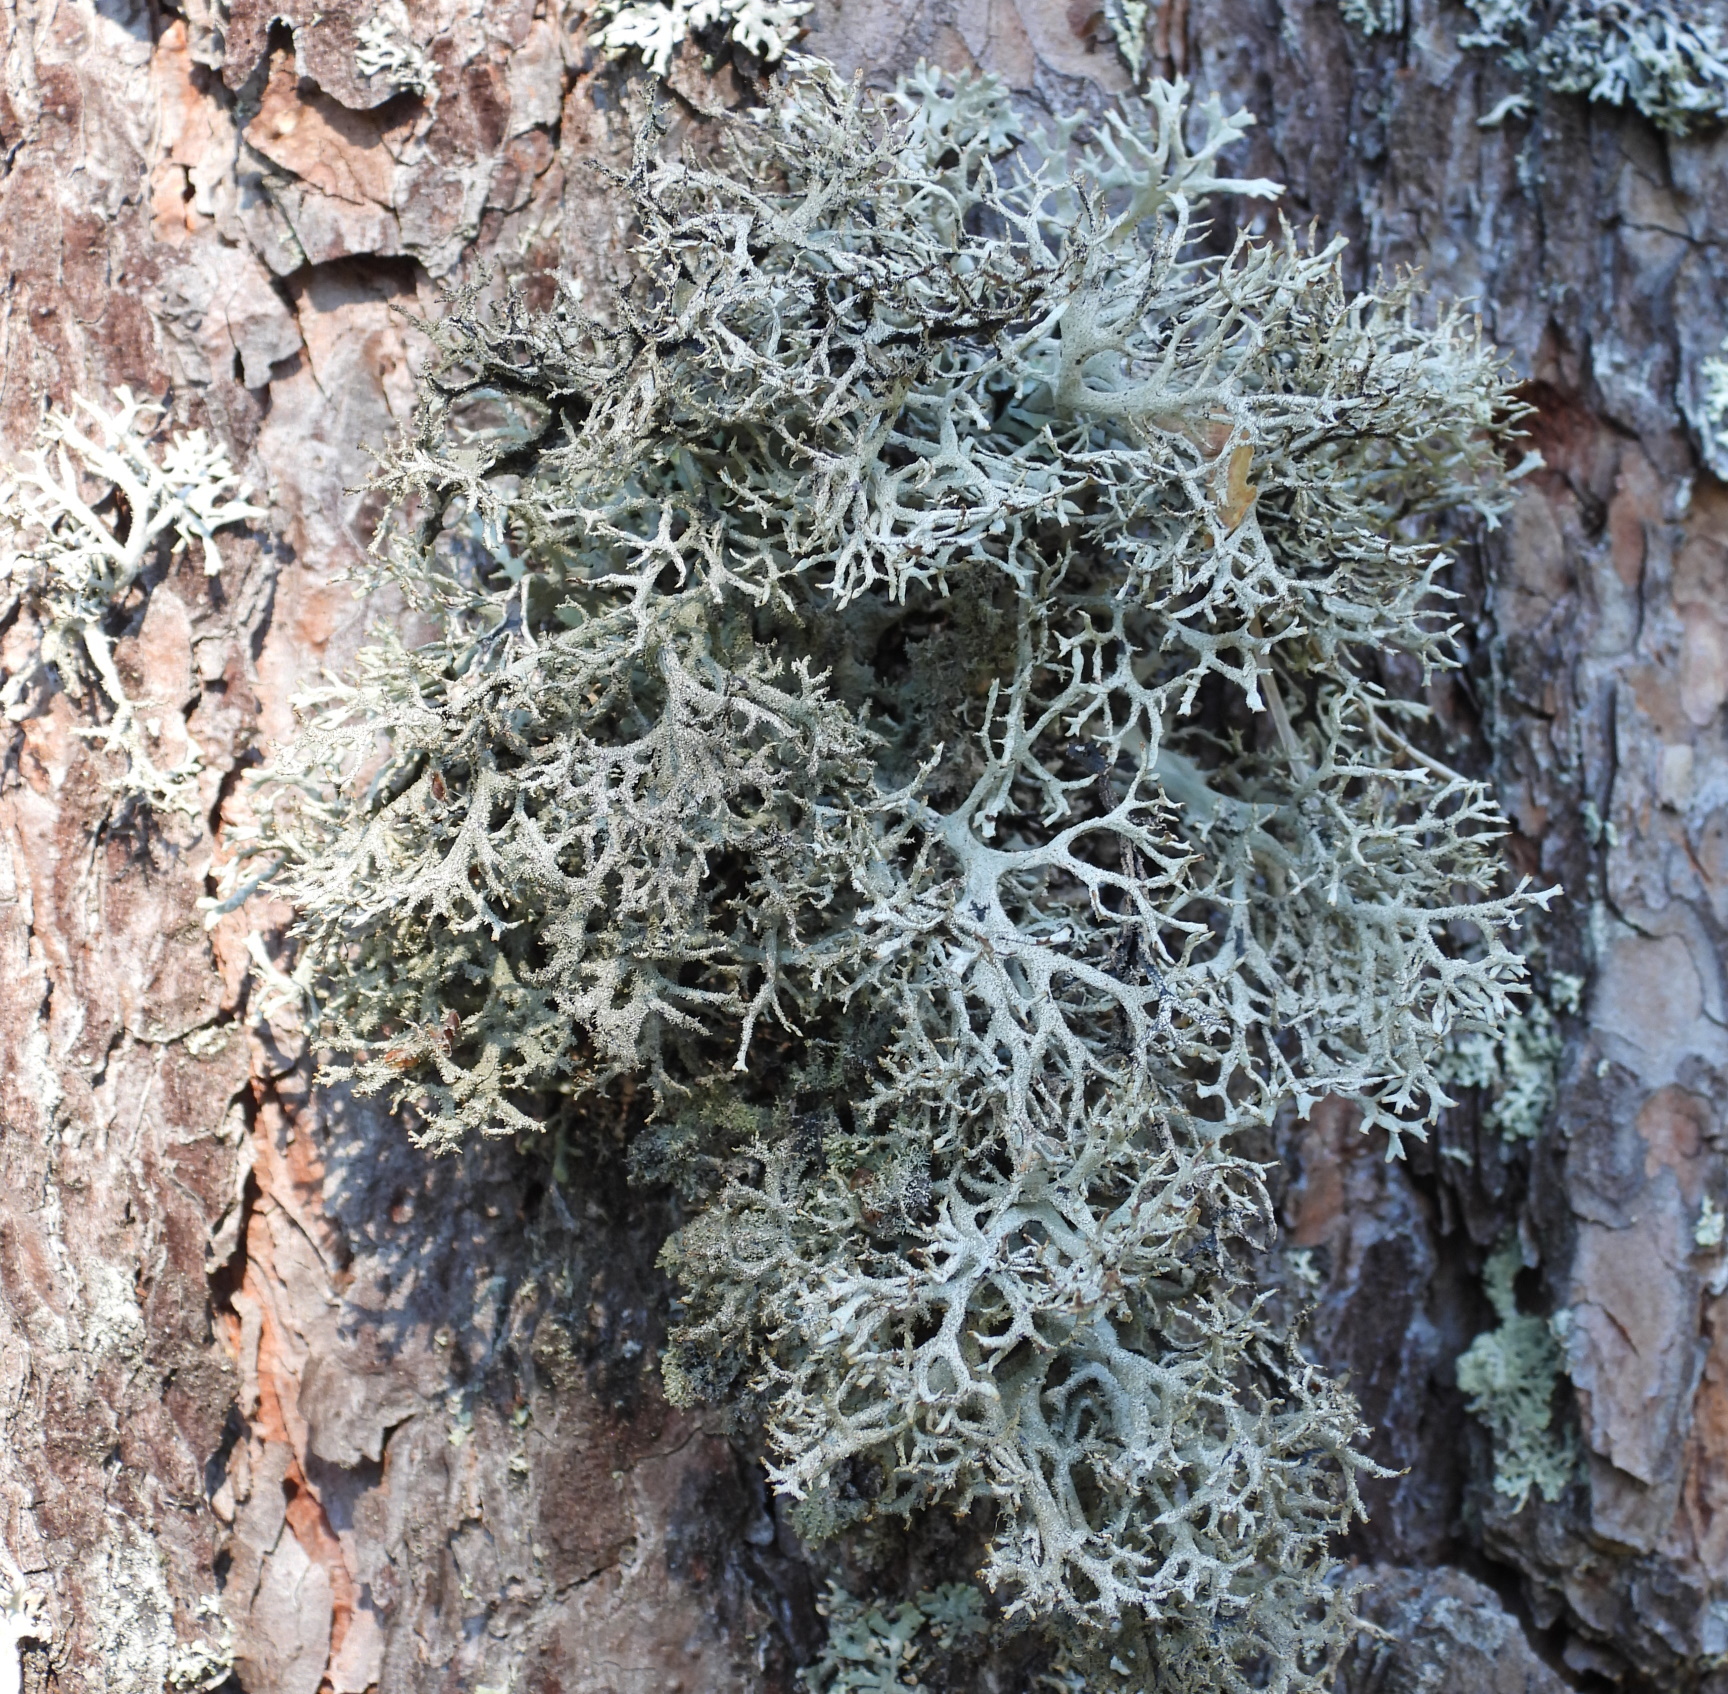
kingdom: Fungi
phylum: Ascomycota
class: Lecanoromycetes
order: Lecanorales
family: Parmeliaceae
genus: Pseudevernia
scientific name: Pseudevernia furfuracea
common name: Tree moss
